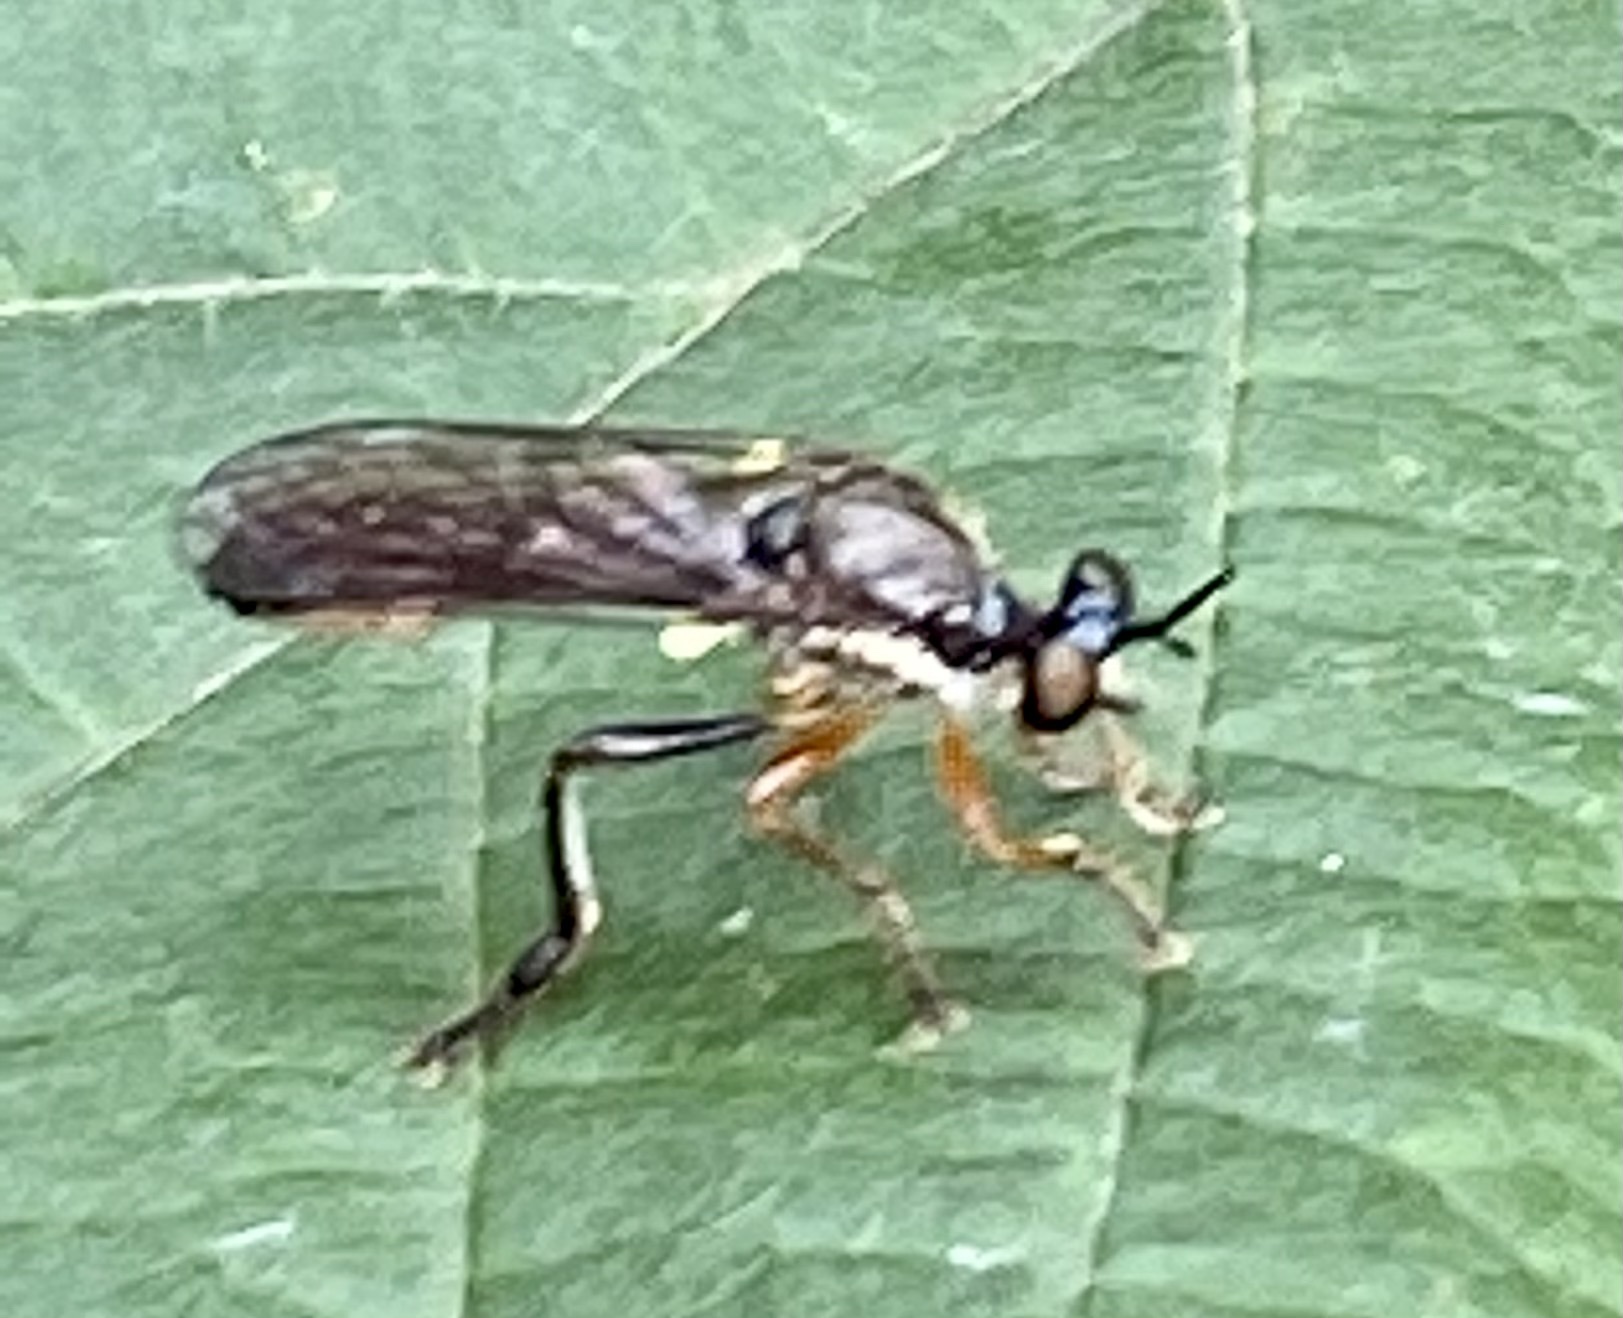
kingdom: Animalia
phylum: Arthropoda
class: Insecta
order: Diptera
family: Asilidae
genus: Dioctria
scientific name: Dioctria hyalipennis
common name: Stripe-legged robberfly
